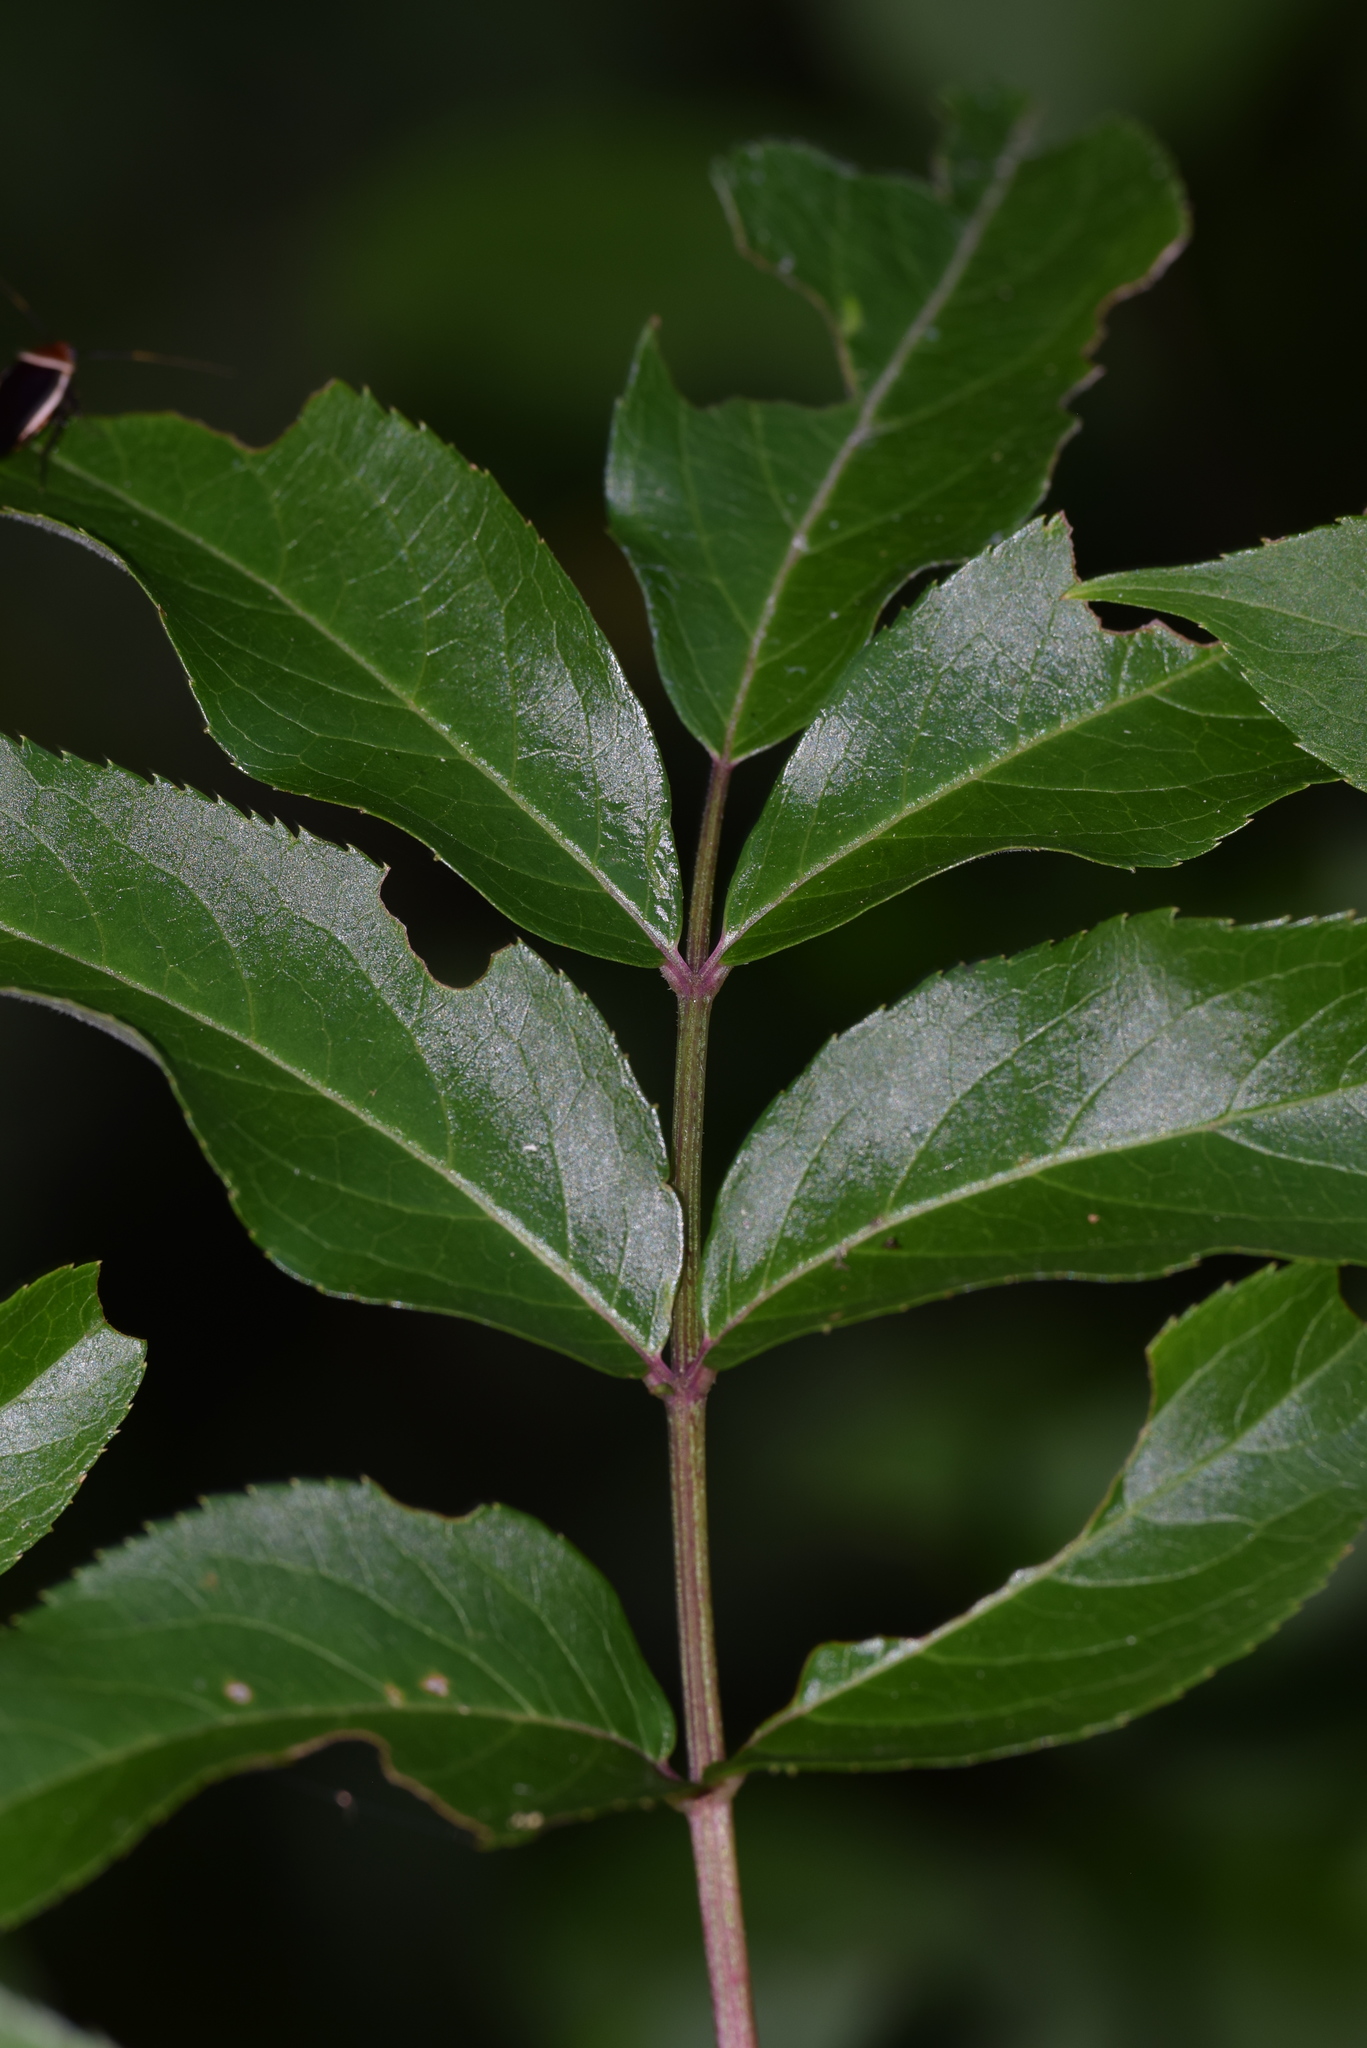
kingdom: Plantae
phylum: Tracheophyta
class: Magnoliopsida
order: Dipsacales
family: Viburnaceae
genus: Sambucus
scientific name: Sambucus canadensis
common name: American elder
